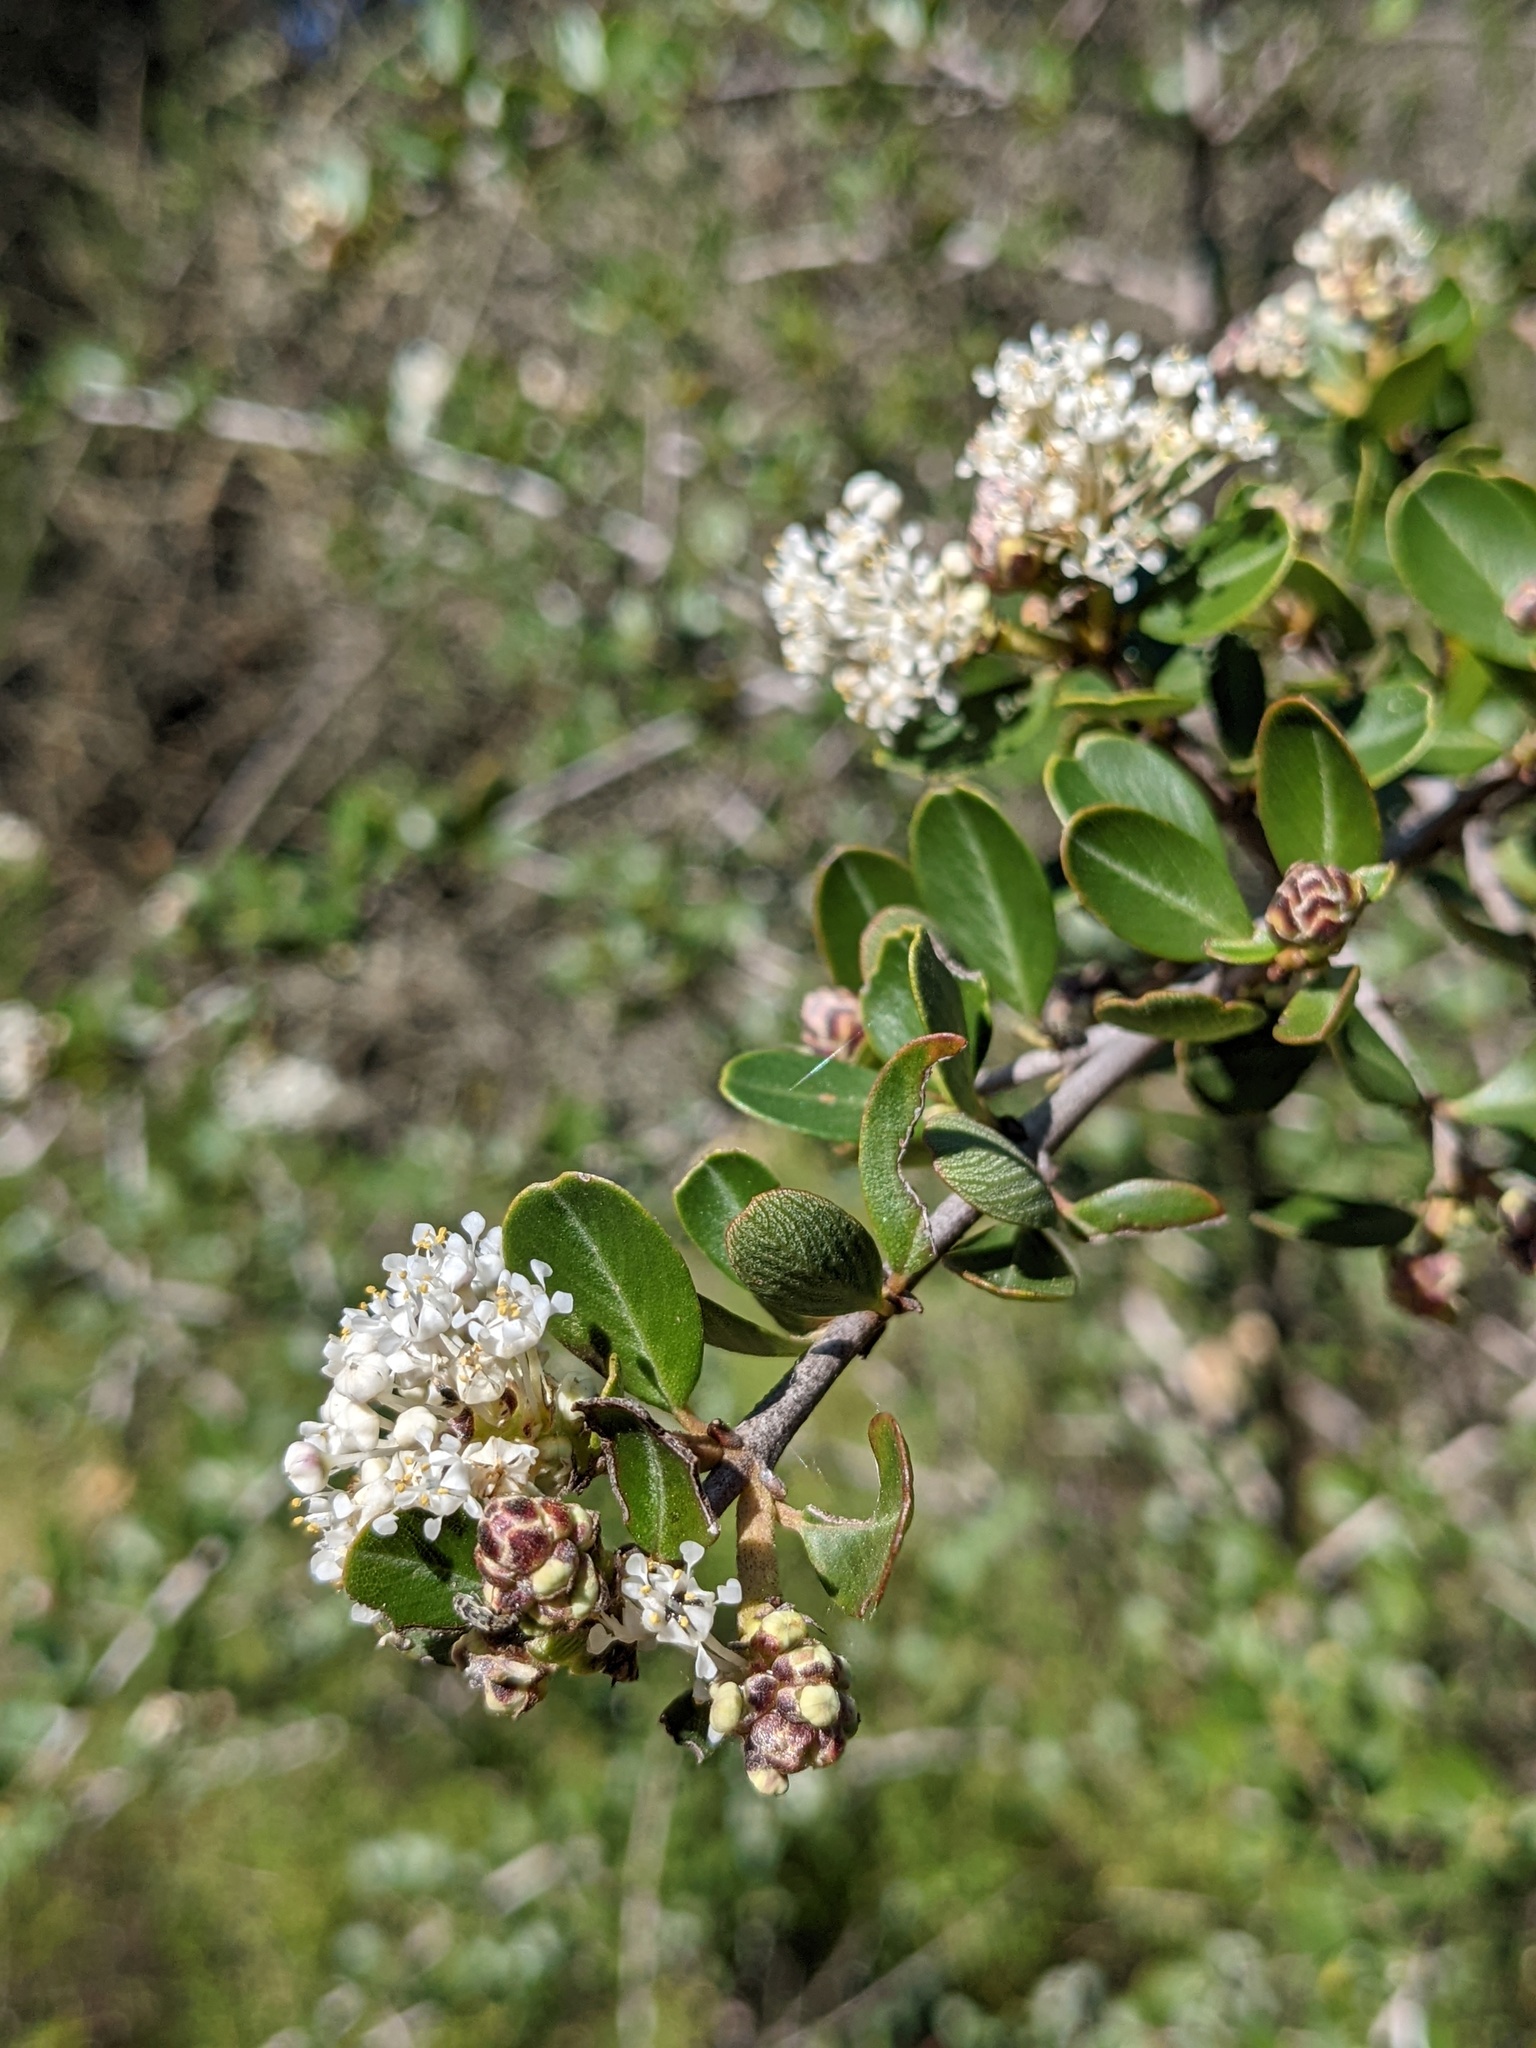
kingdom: Plantae
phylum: Tracheophyta
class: Magnoliopsida
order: Rosales
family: Rhamnaceae
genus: Ceanothus
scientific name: Ceanothus cuneatus
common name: Cuneate ceanothus
